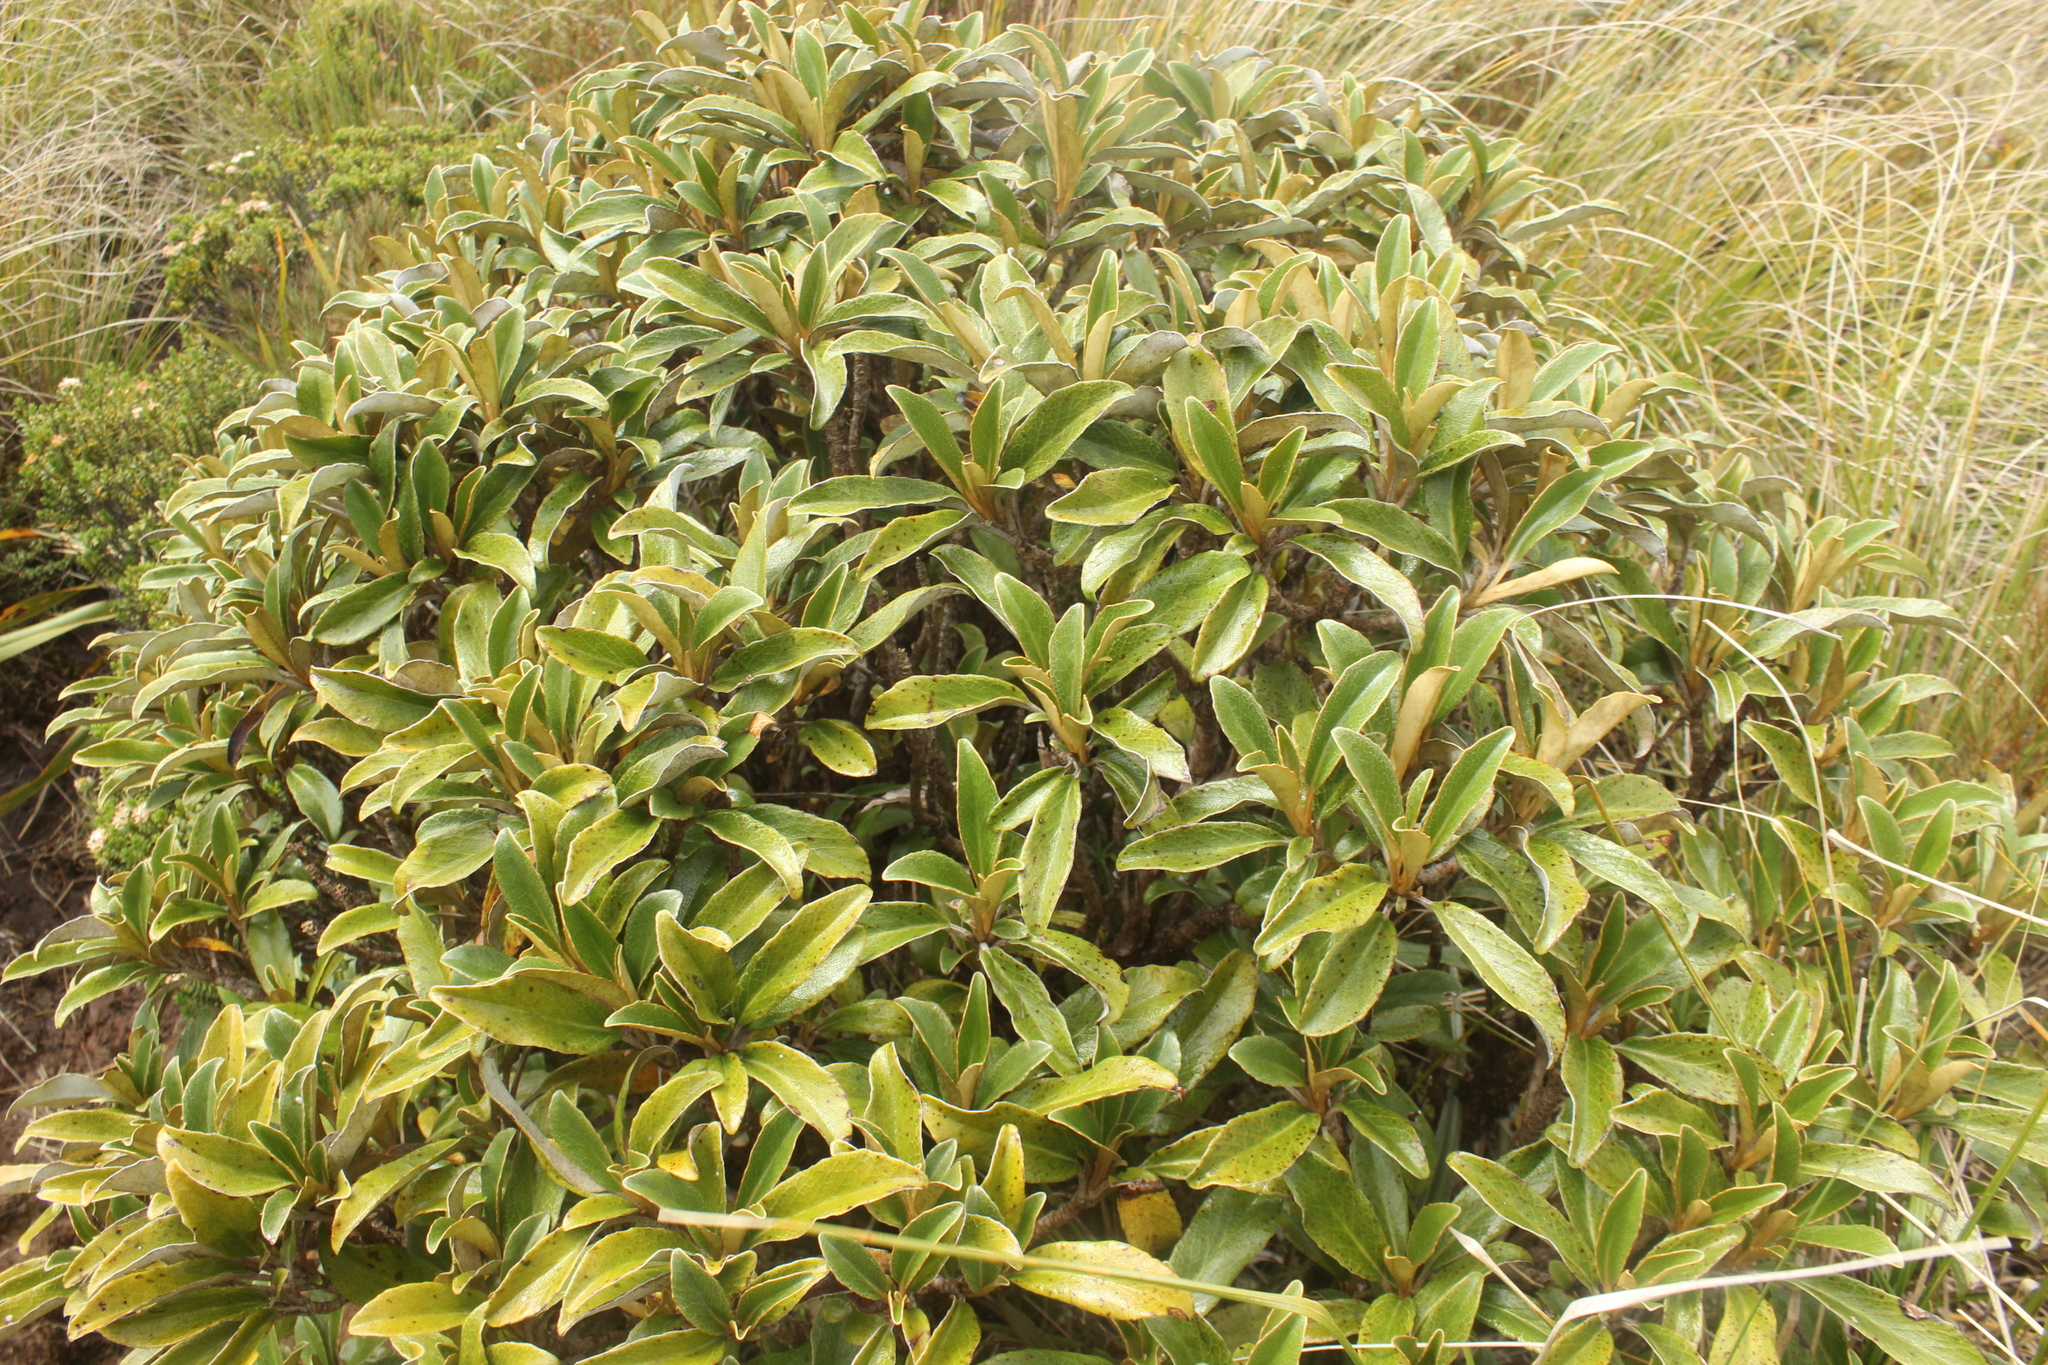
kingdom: Plantae
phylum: Tracheophyta
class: Magnoliopsida
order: Asterales
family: Asteraceae
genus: Brachyglottis
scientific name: Brachyglottis elaeagnifolia
